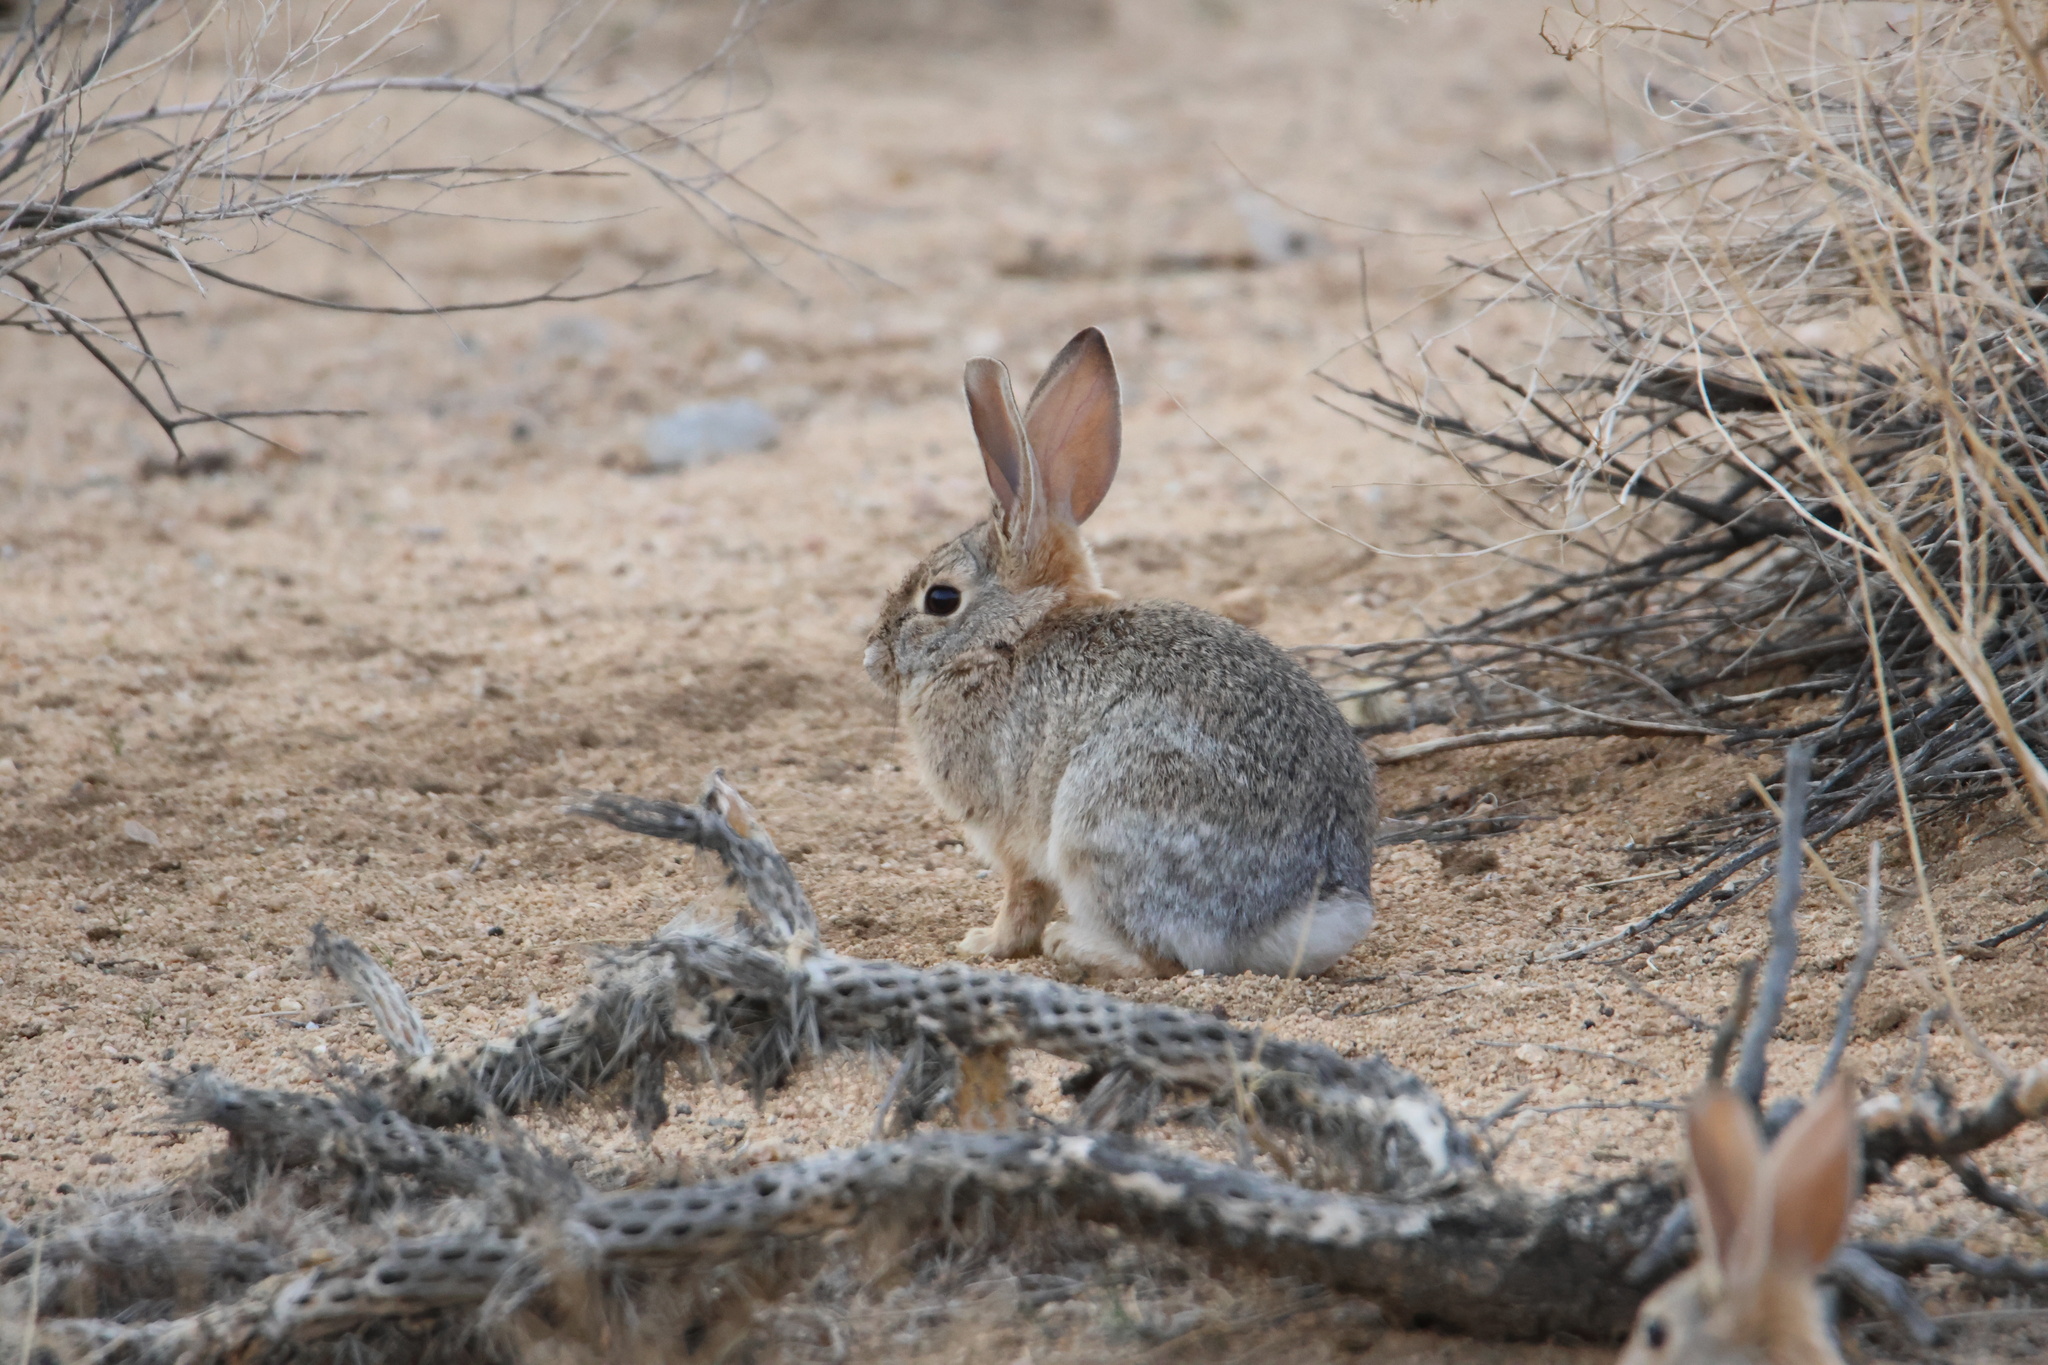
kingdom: Animalia
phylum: Chordata
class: Mammalia
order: Lagomorpha
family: Leporidae
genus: Sylvilagus
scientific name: Sylvilagus audubonii
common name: Desert cottontail
